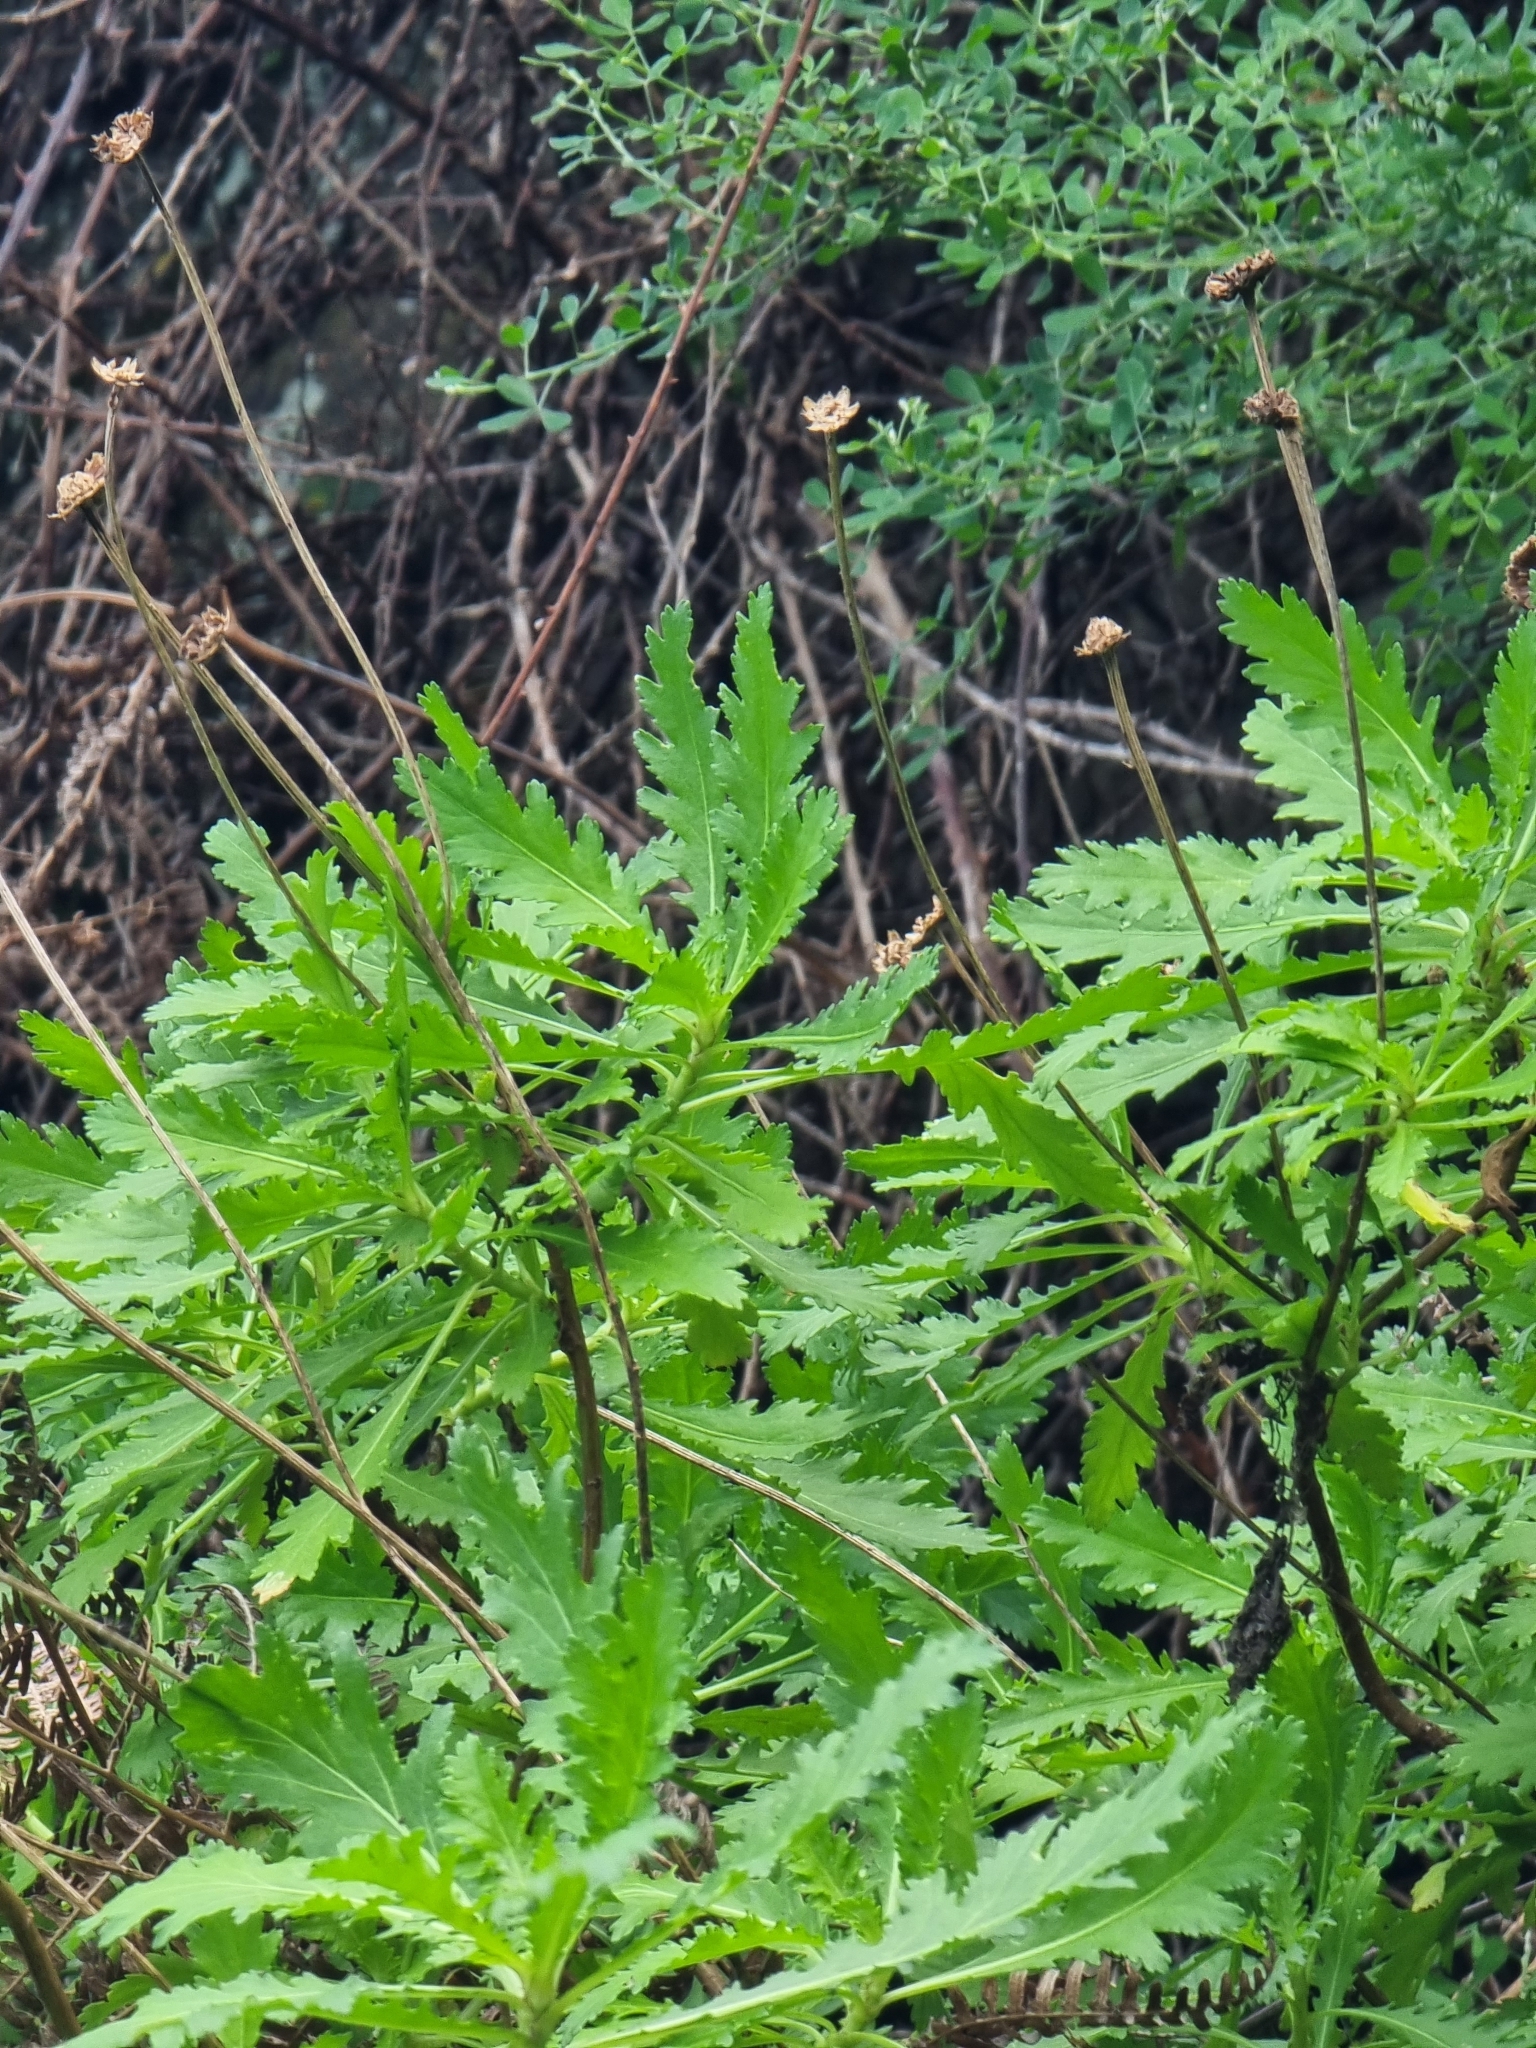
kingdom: Plantae
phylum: Tracheophyta
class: Magnoliopsida
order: Asterales
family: Asteraceae
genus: Argyranthemum
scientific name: Argyranthemum pinnatifidum
